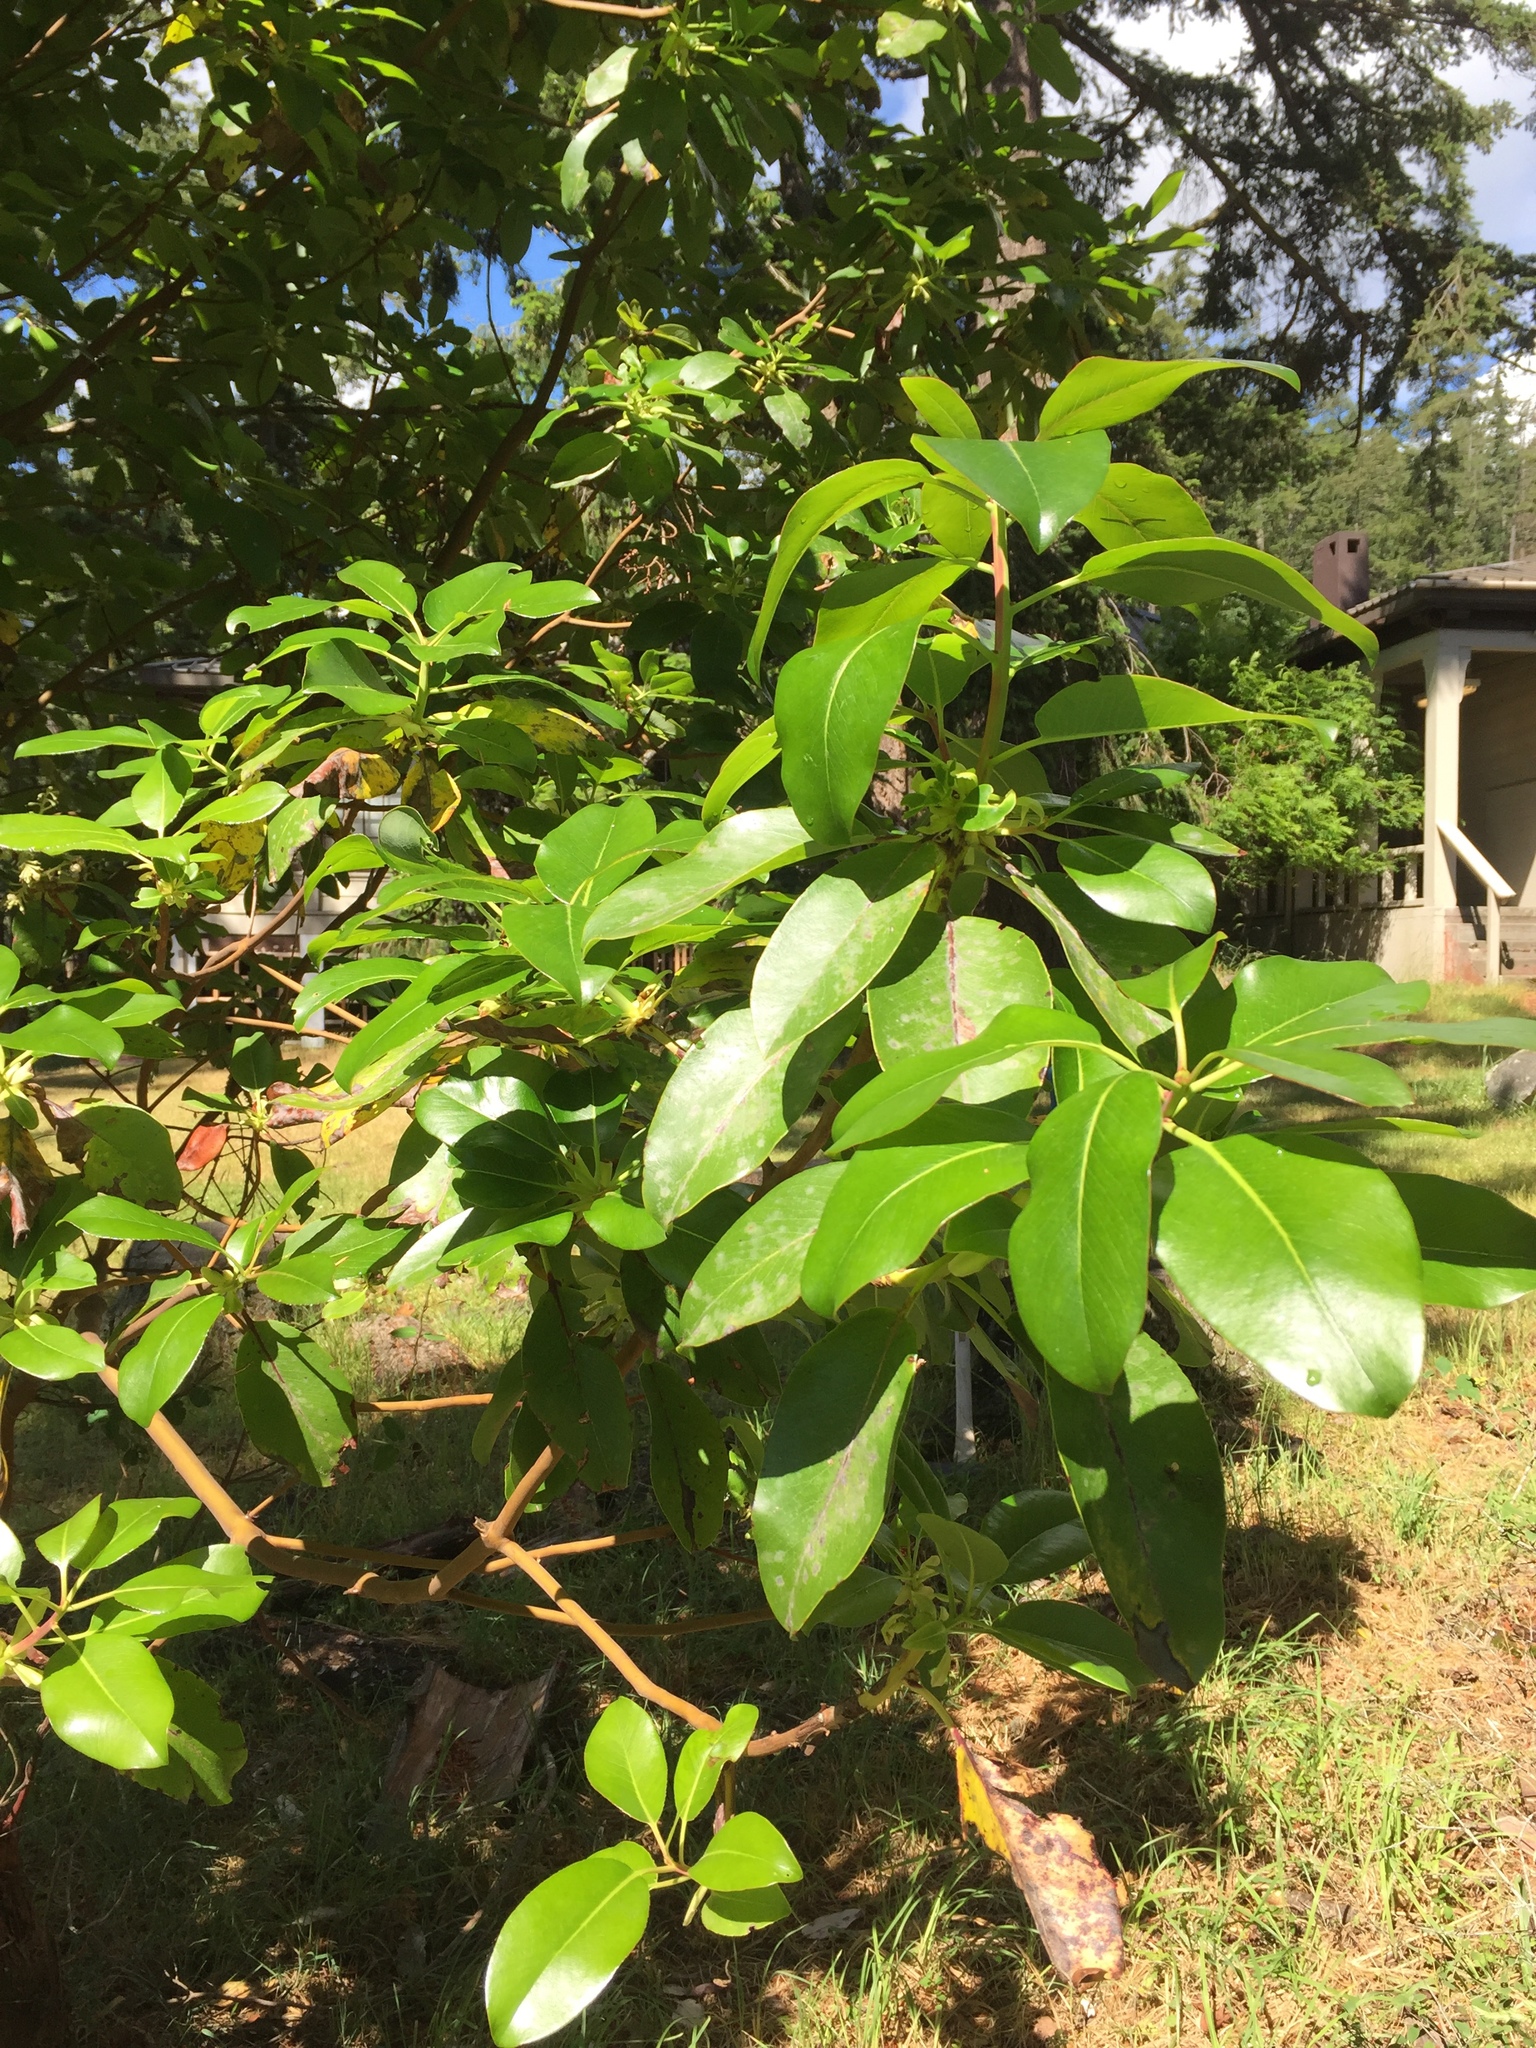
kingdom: Plantae
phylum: Tracheophyta
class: Magnoliopsida
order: Ericales
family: Ericaceae
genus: Arbutus
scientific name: Arbutus menziesii
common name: Pacific madrone
